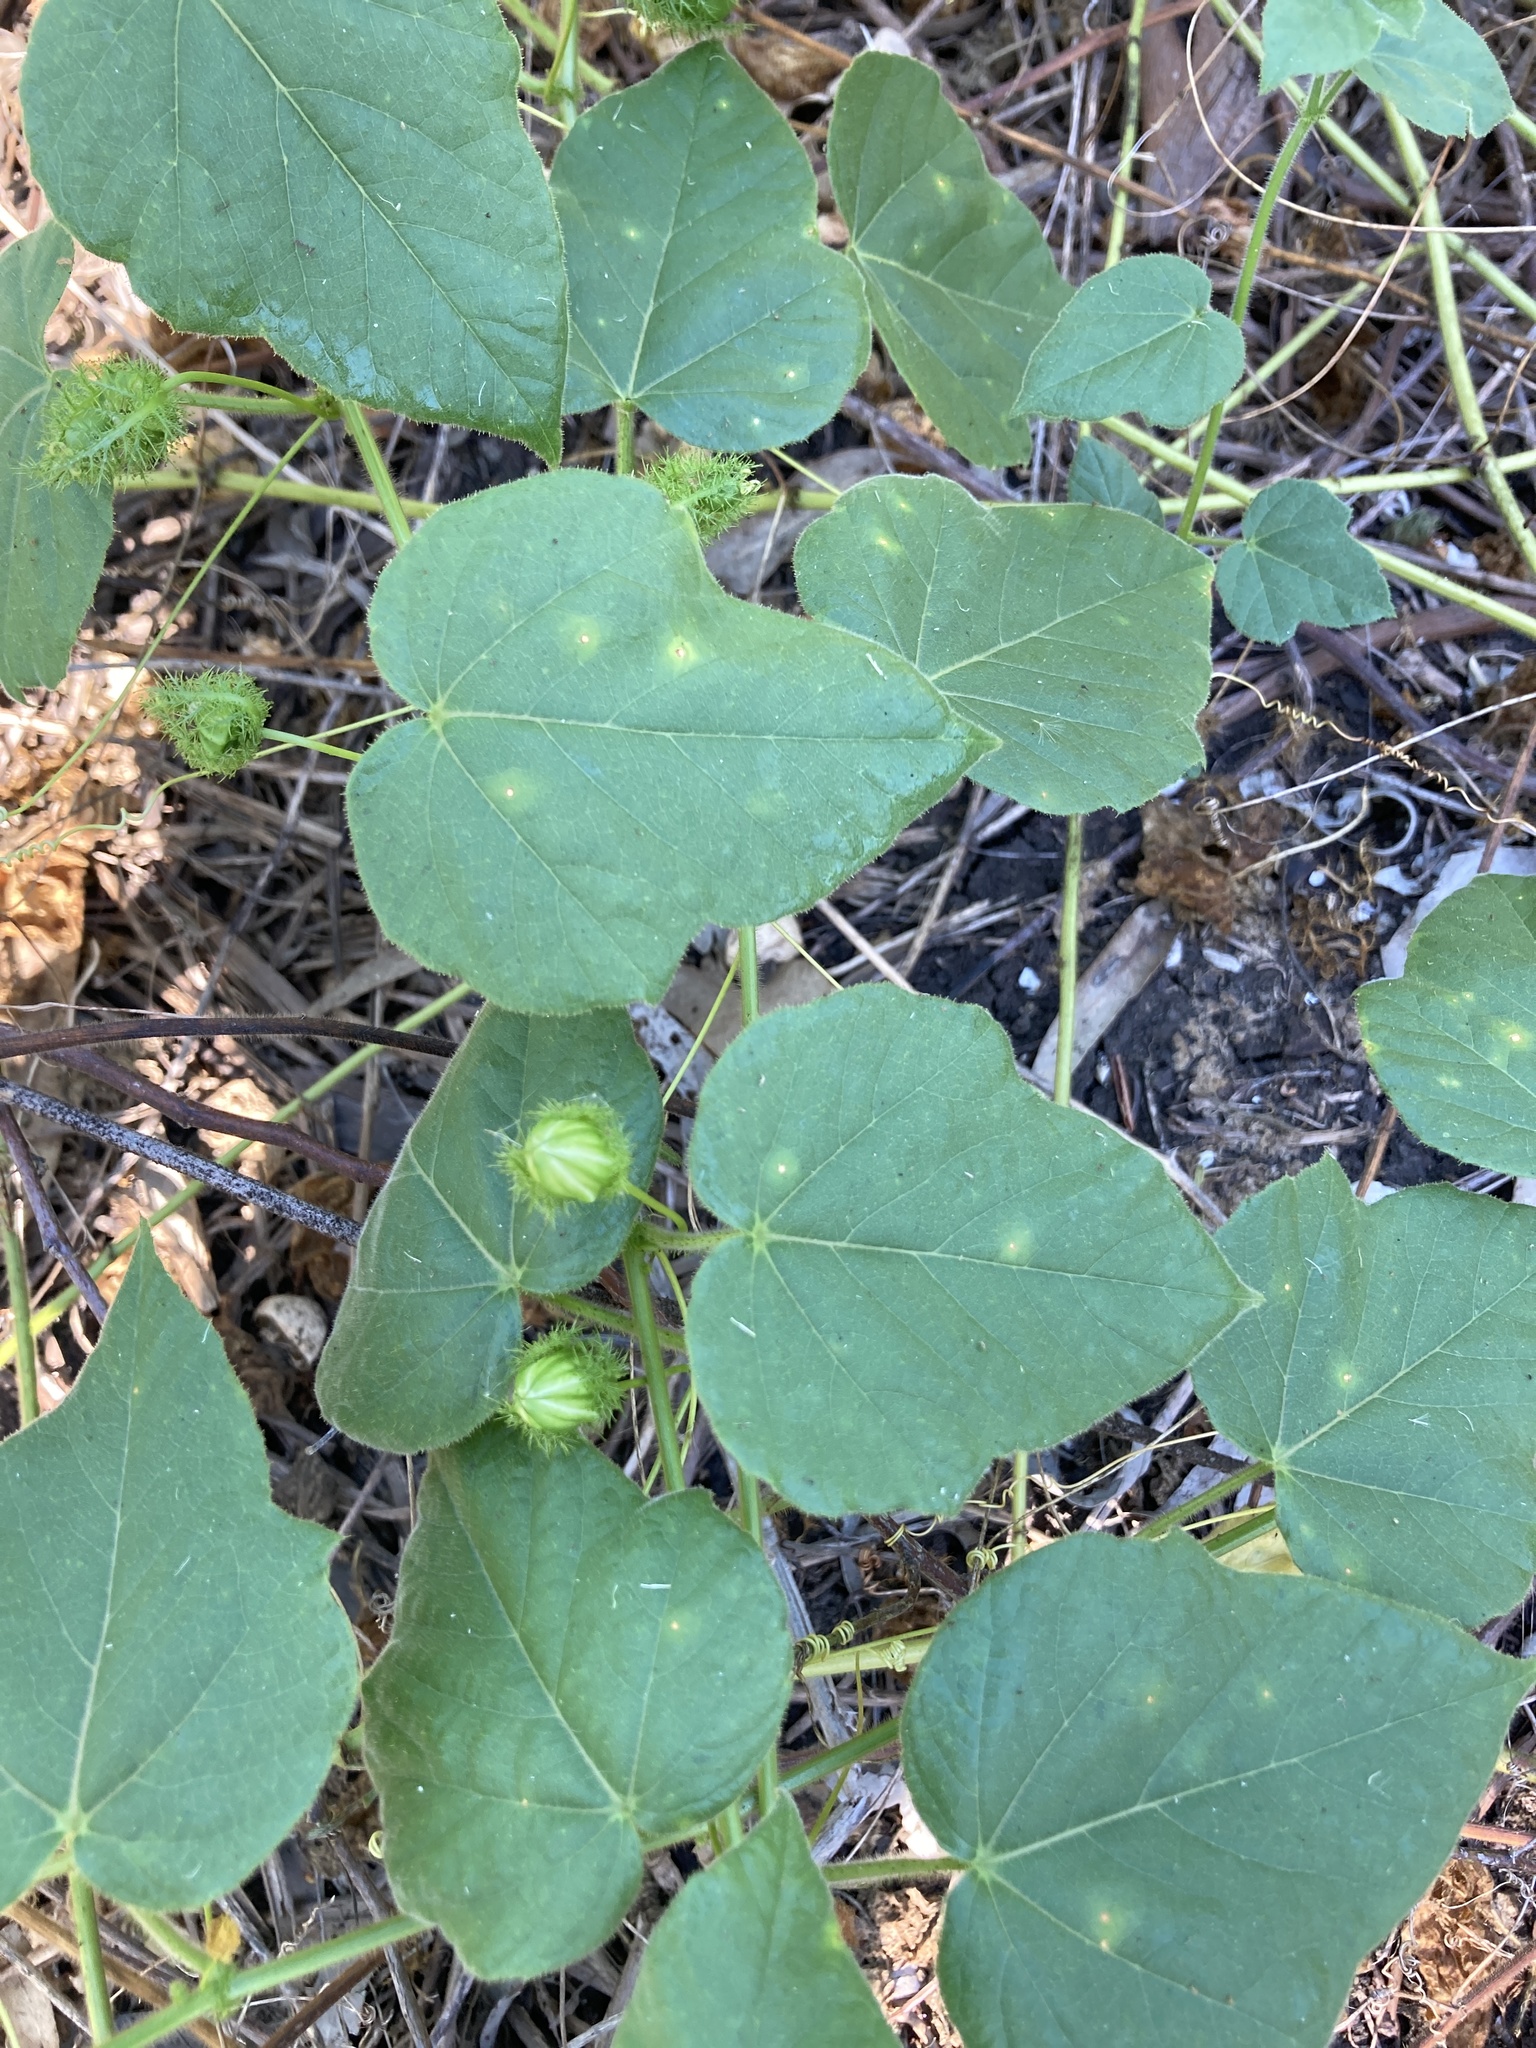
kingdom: Plantae
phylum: Tracheophyta
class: Magnoliopsida
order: Malpighiales
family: Passifloraceae
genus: Passiflora
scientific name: Passiflora foetida
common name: Fetid passionflower
